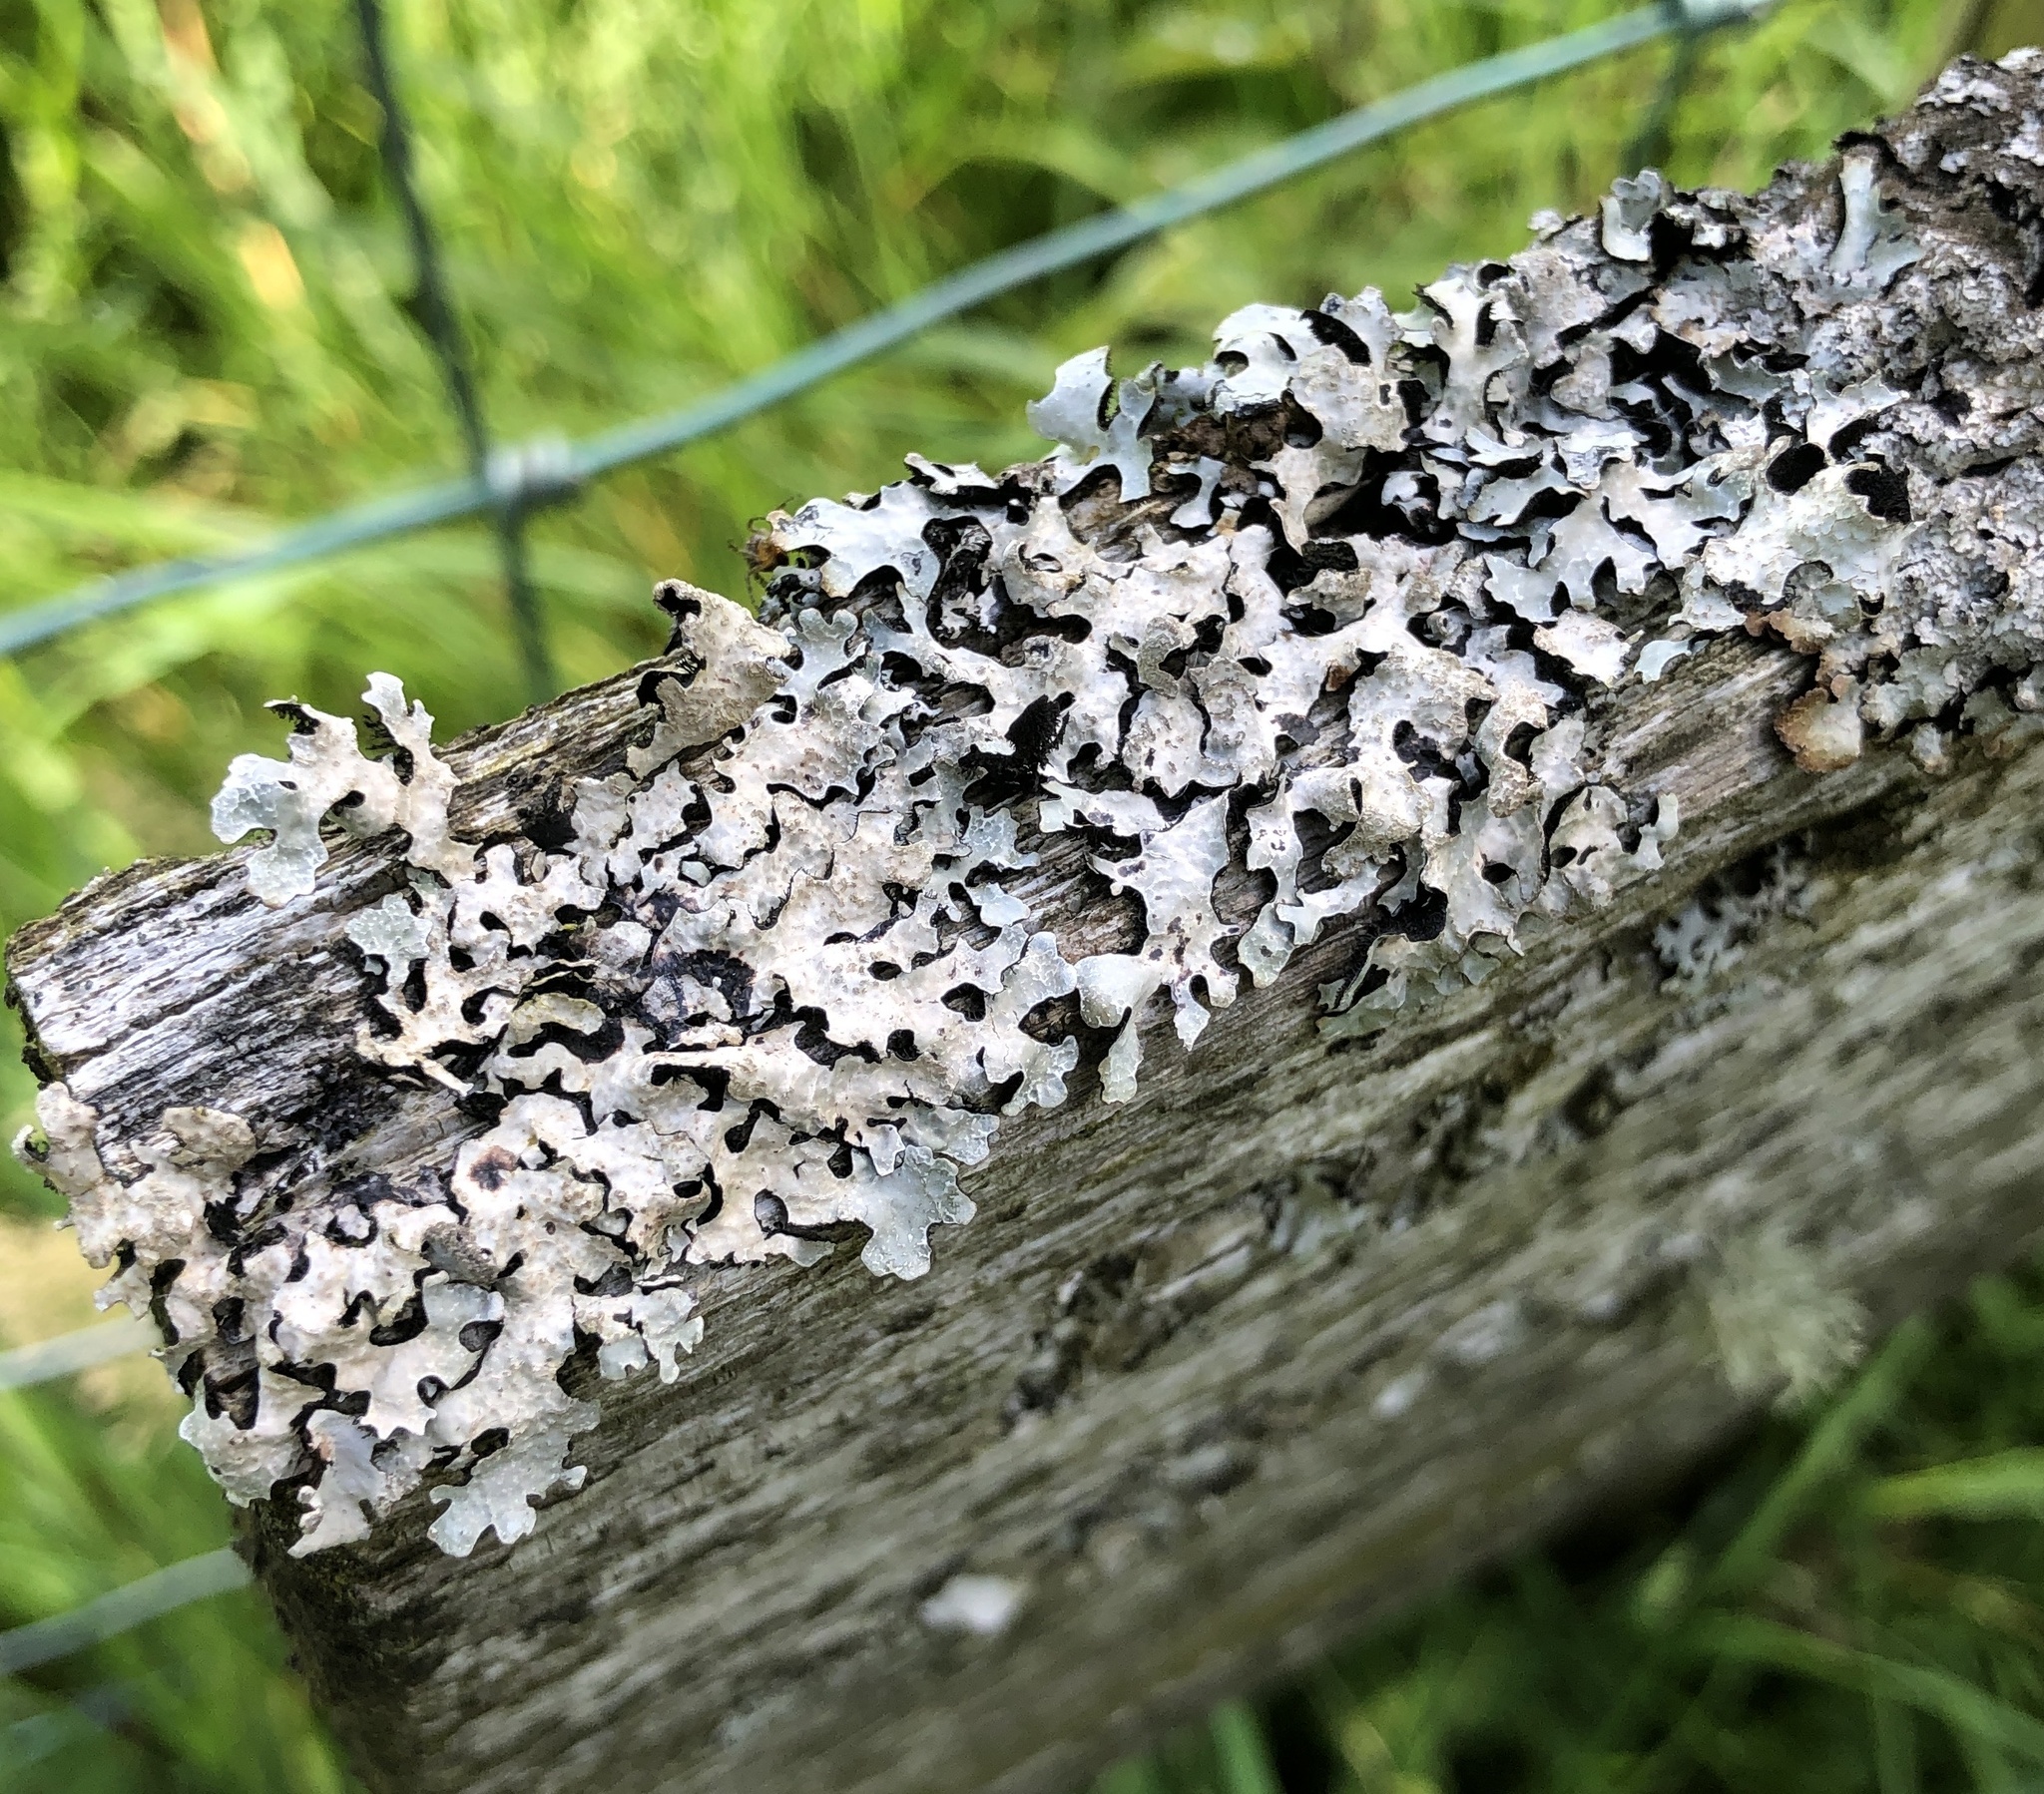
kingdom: Fungi
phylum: Ascomycota
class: Lecanoromycetes
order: Lecanorales
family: Parmeliaceae
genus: Parmelia
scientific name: Parmelia sulcata
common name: Netted shield lichen
